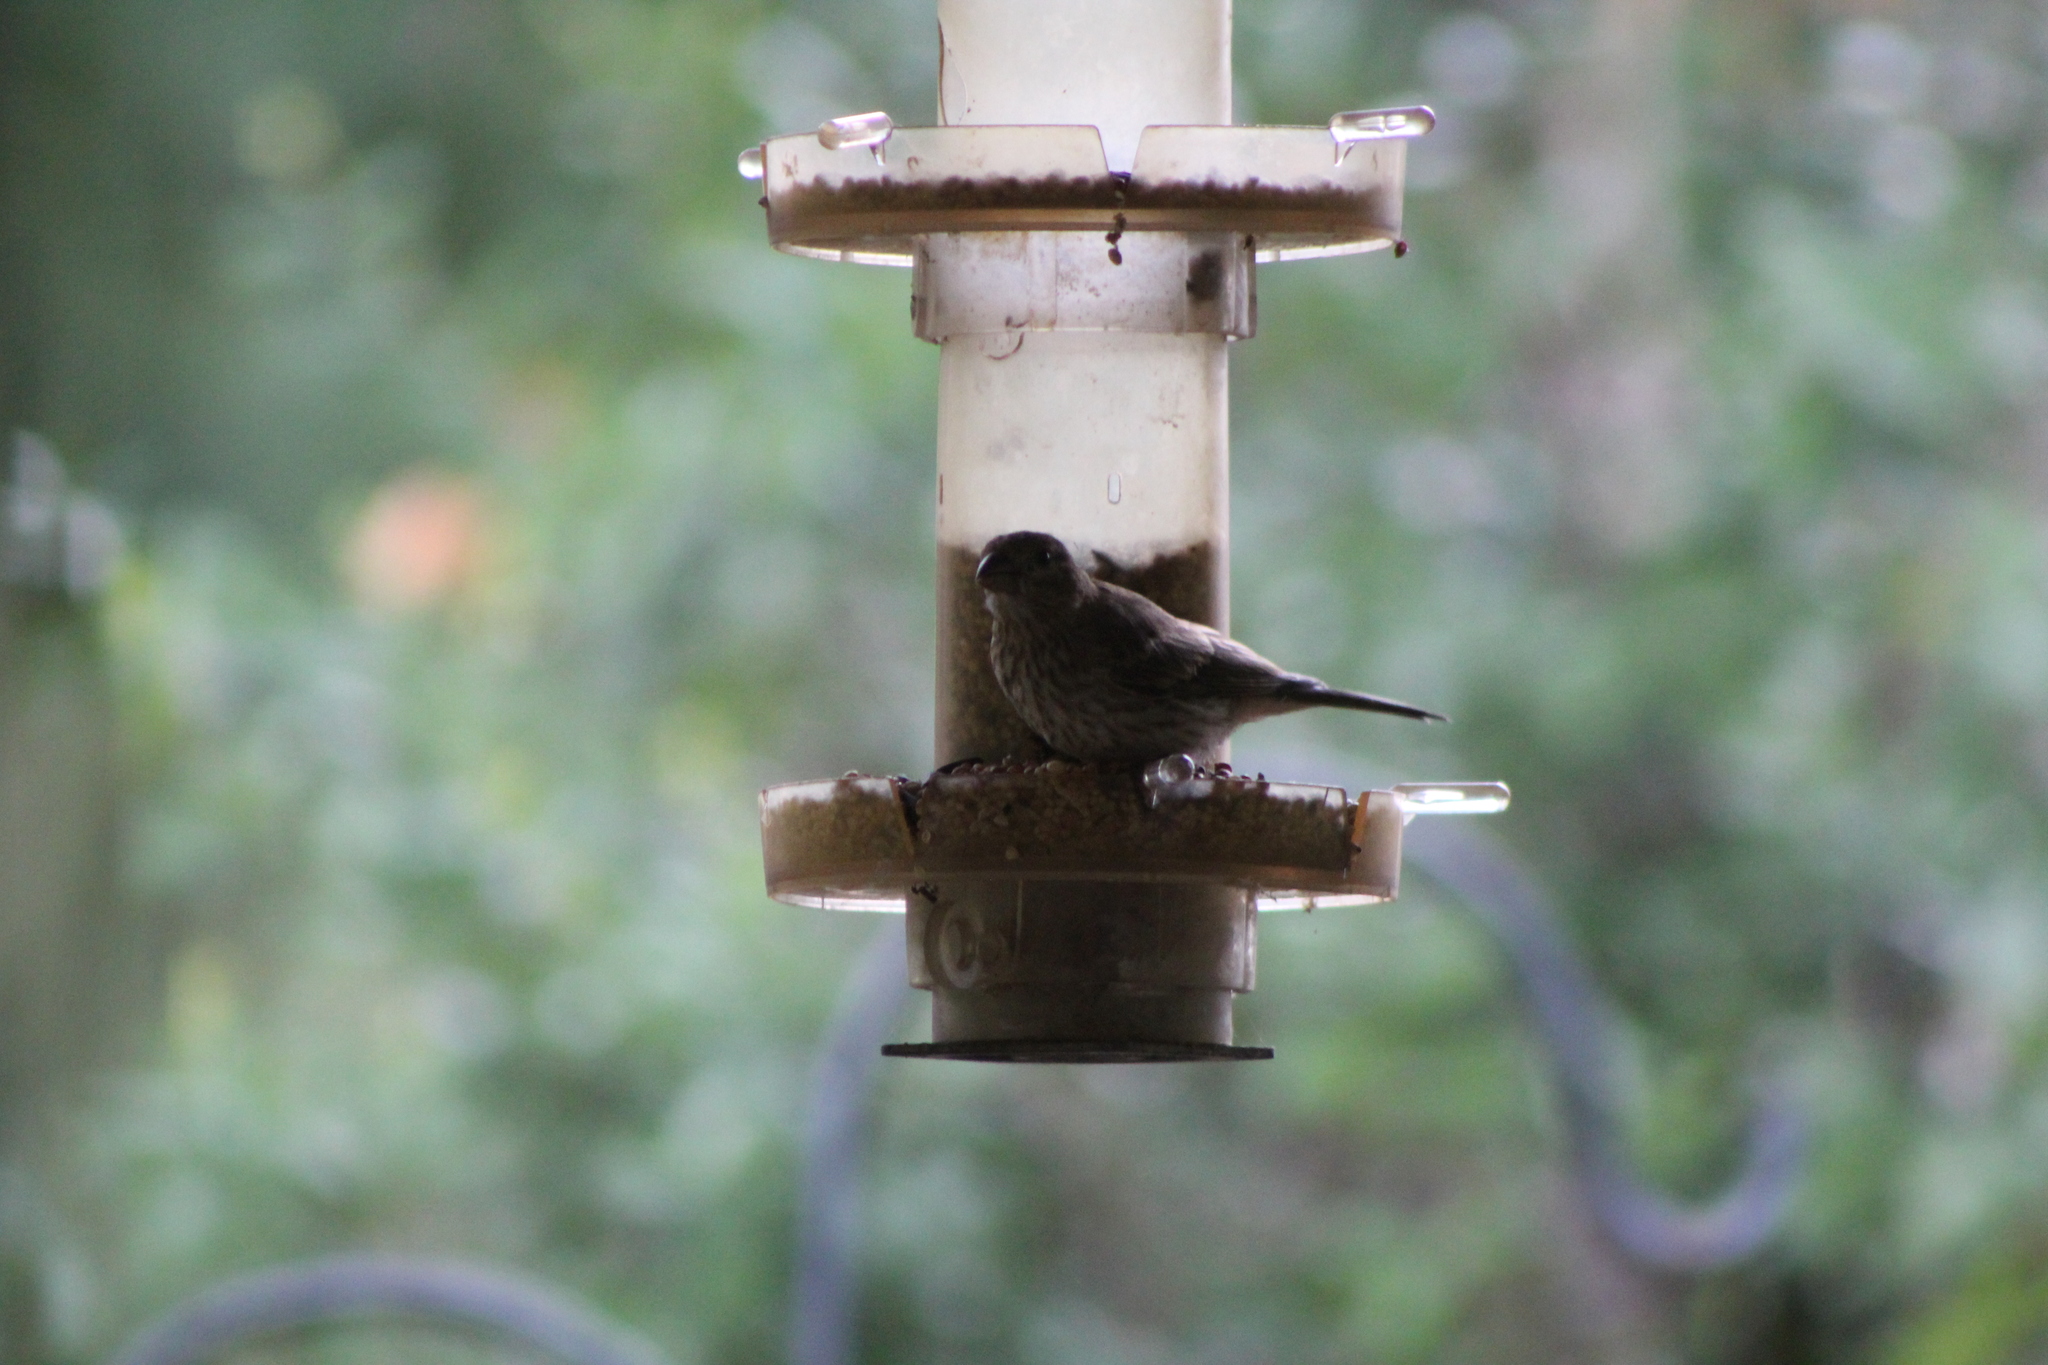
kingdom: Animalia
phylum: Chordata
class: Aves
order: Passeriformes
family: Fringillidae
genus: Haemorhous
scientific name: Haemorhous mexicanus
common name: House finch
